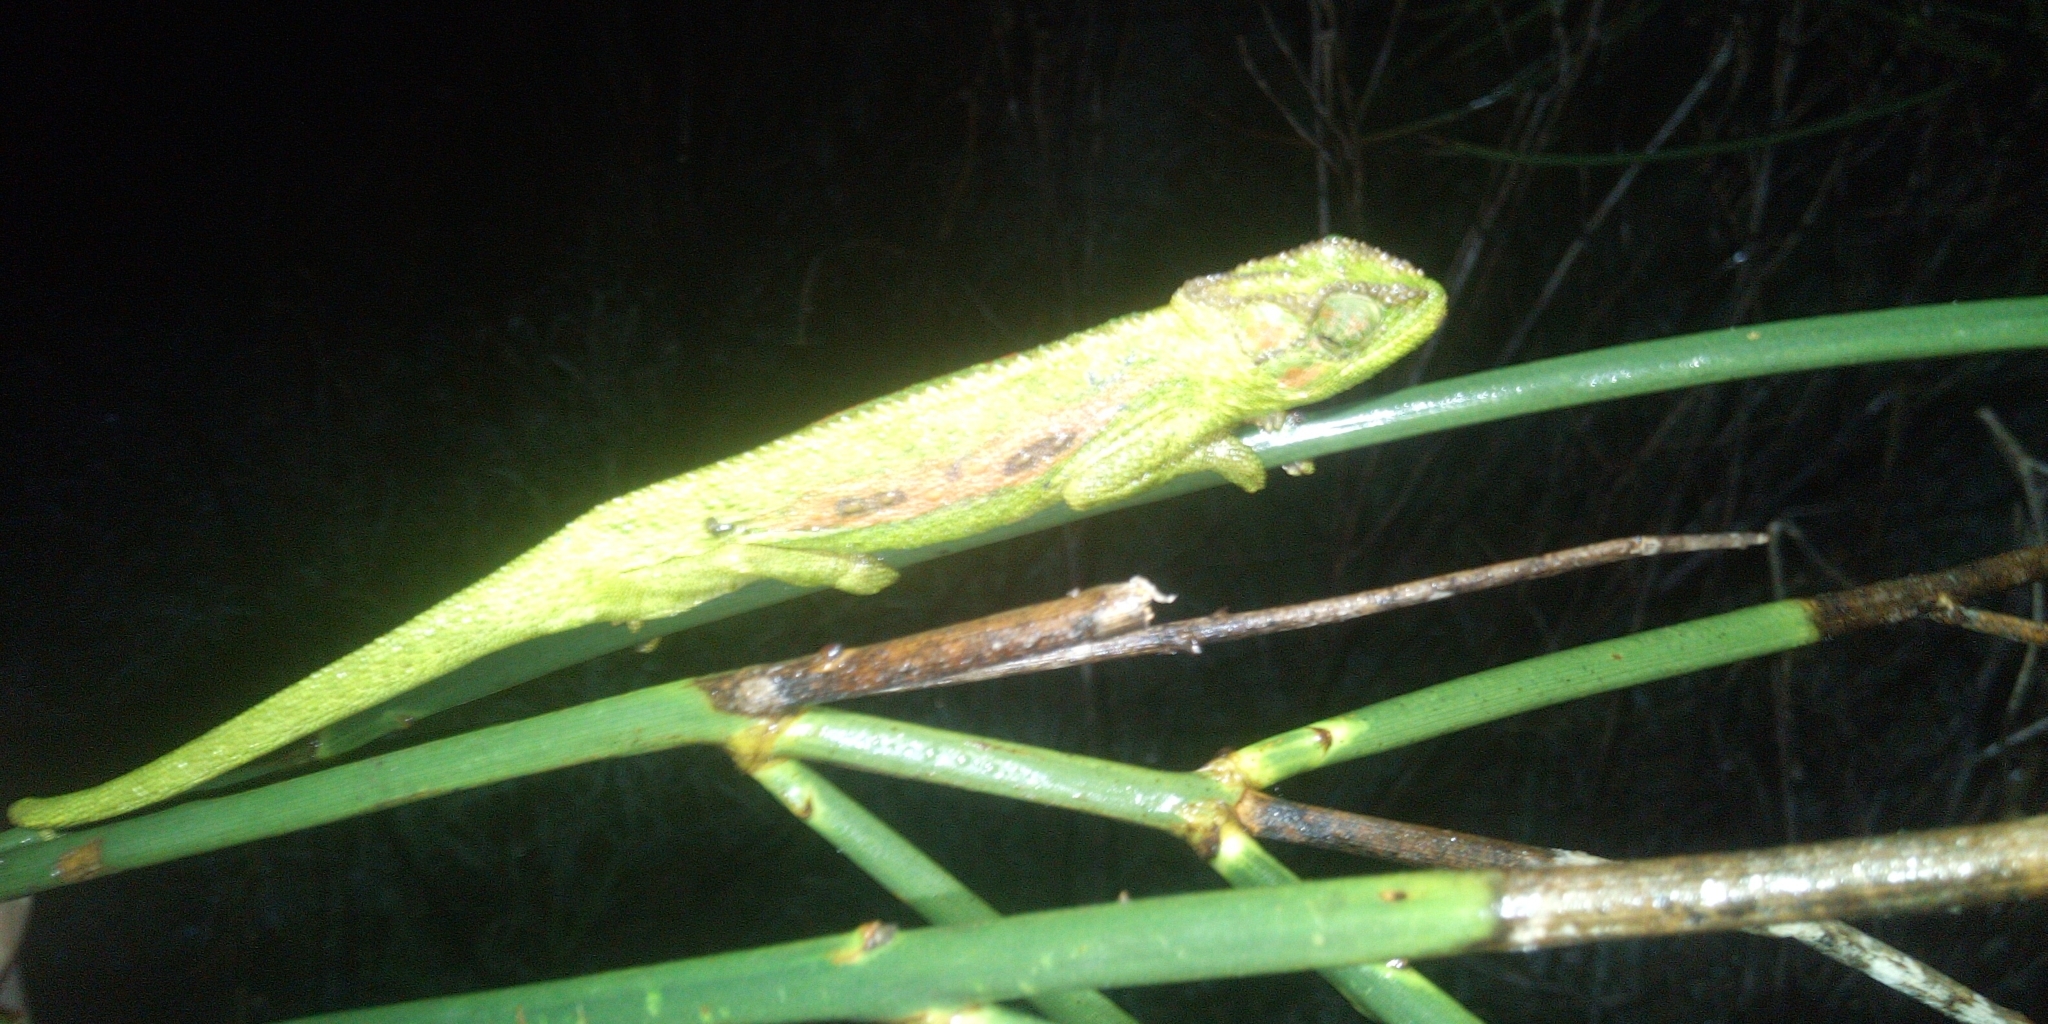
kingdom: Animalia
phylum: Chordata
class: Squamata
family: Chamaeleonidae
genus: Bradypodion
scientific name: Bradypodion pumilum
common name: Cape dwarf chameleon
